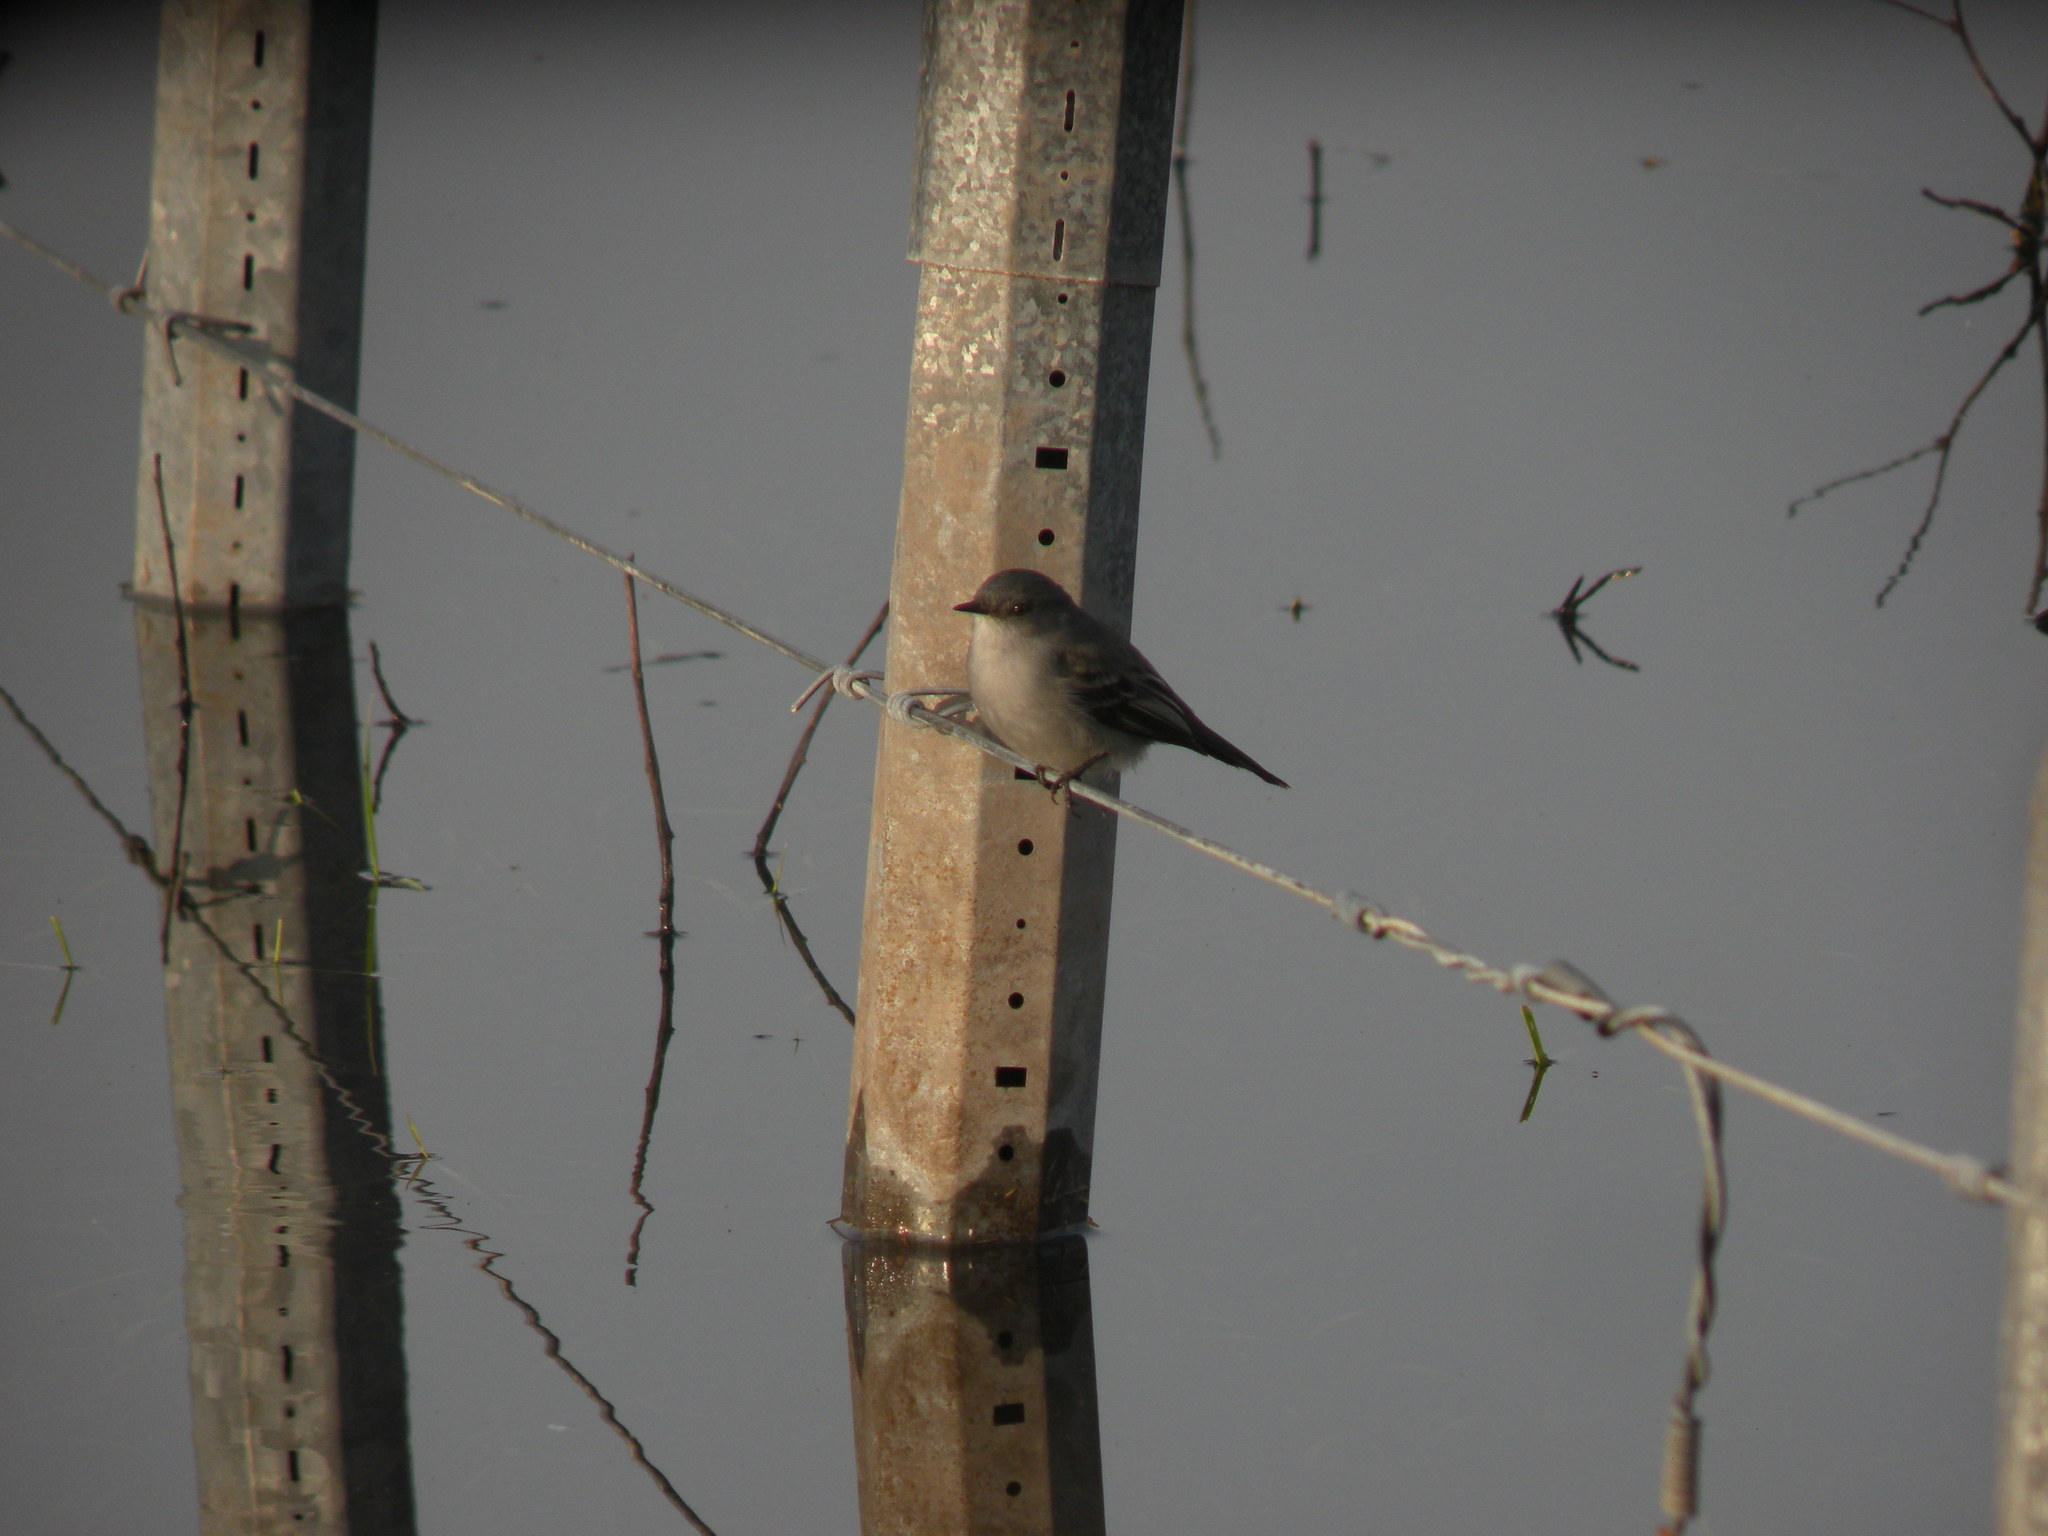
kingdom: Animalia
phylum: Chordata
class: Aves
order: Passeriformes
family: Tyrannidae
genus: Serpophaga
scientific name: Serpophaga nigricans
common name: Sooty tyrannulet
